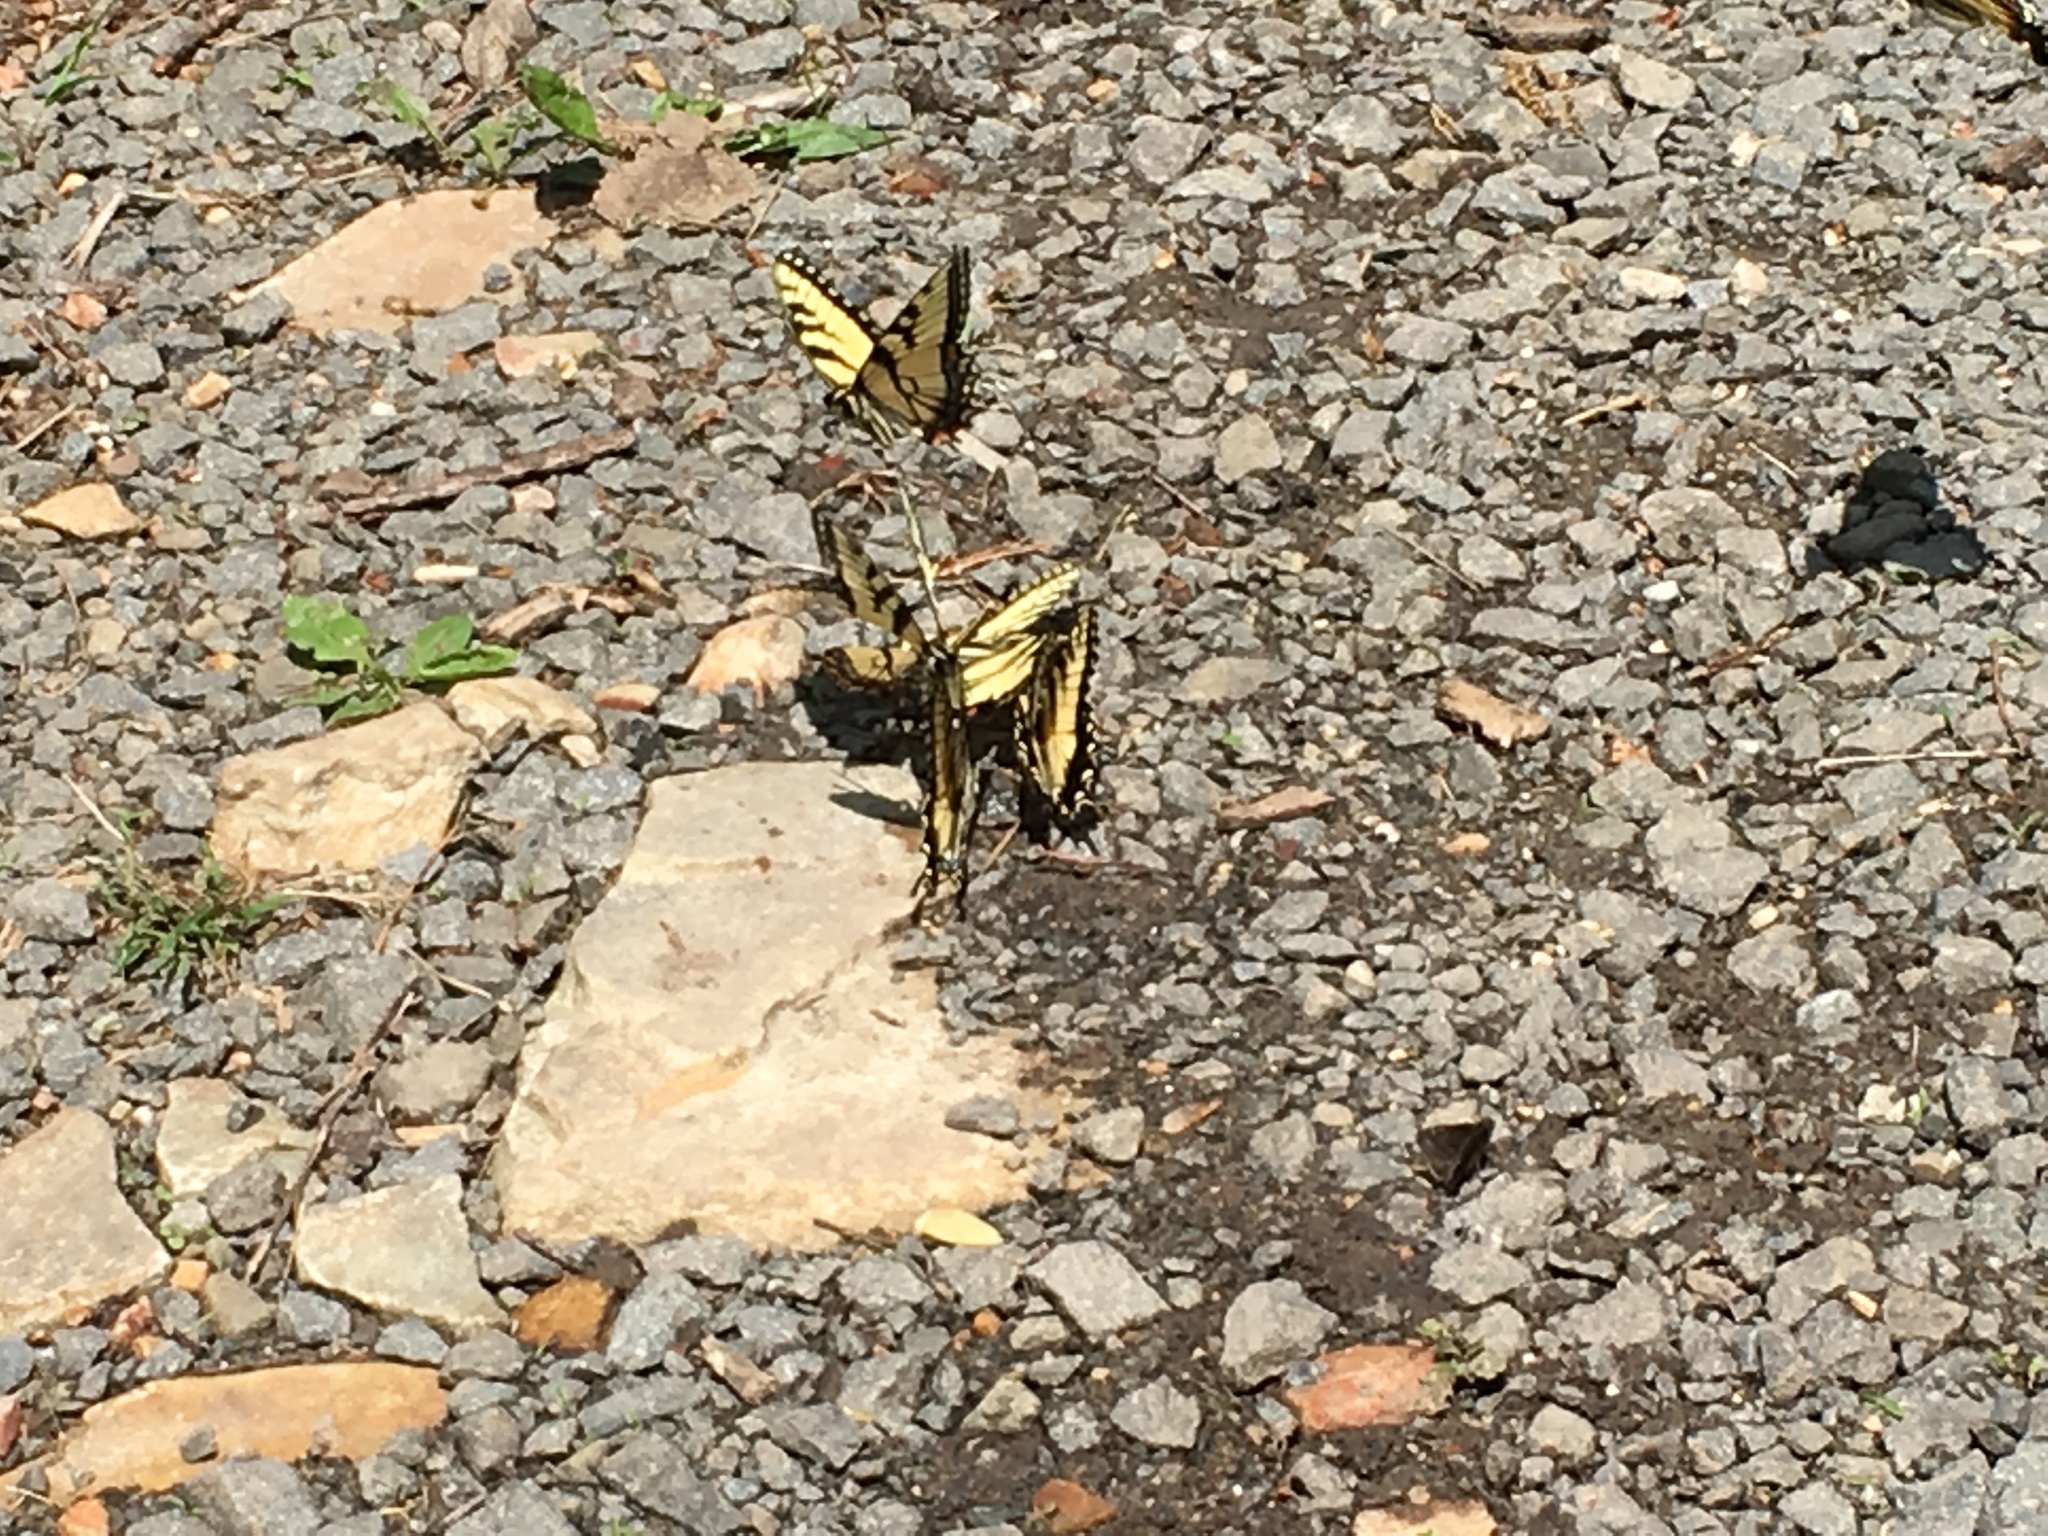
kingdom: Animalia
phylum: Arthropoda
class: Insecta
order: Lepidoptera
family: Papilionidae
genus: Papilio
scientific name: Papilio glaucus
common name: Tiger swallowtail
